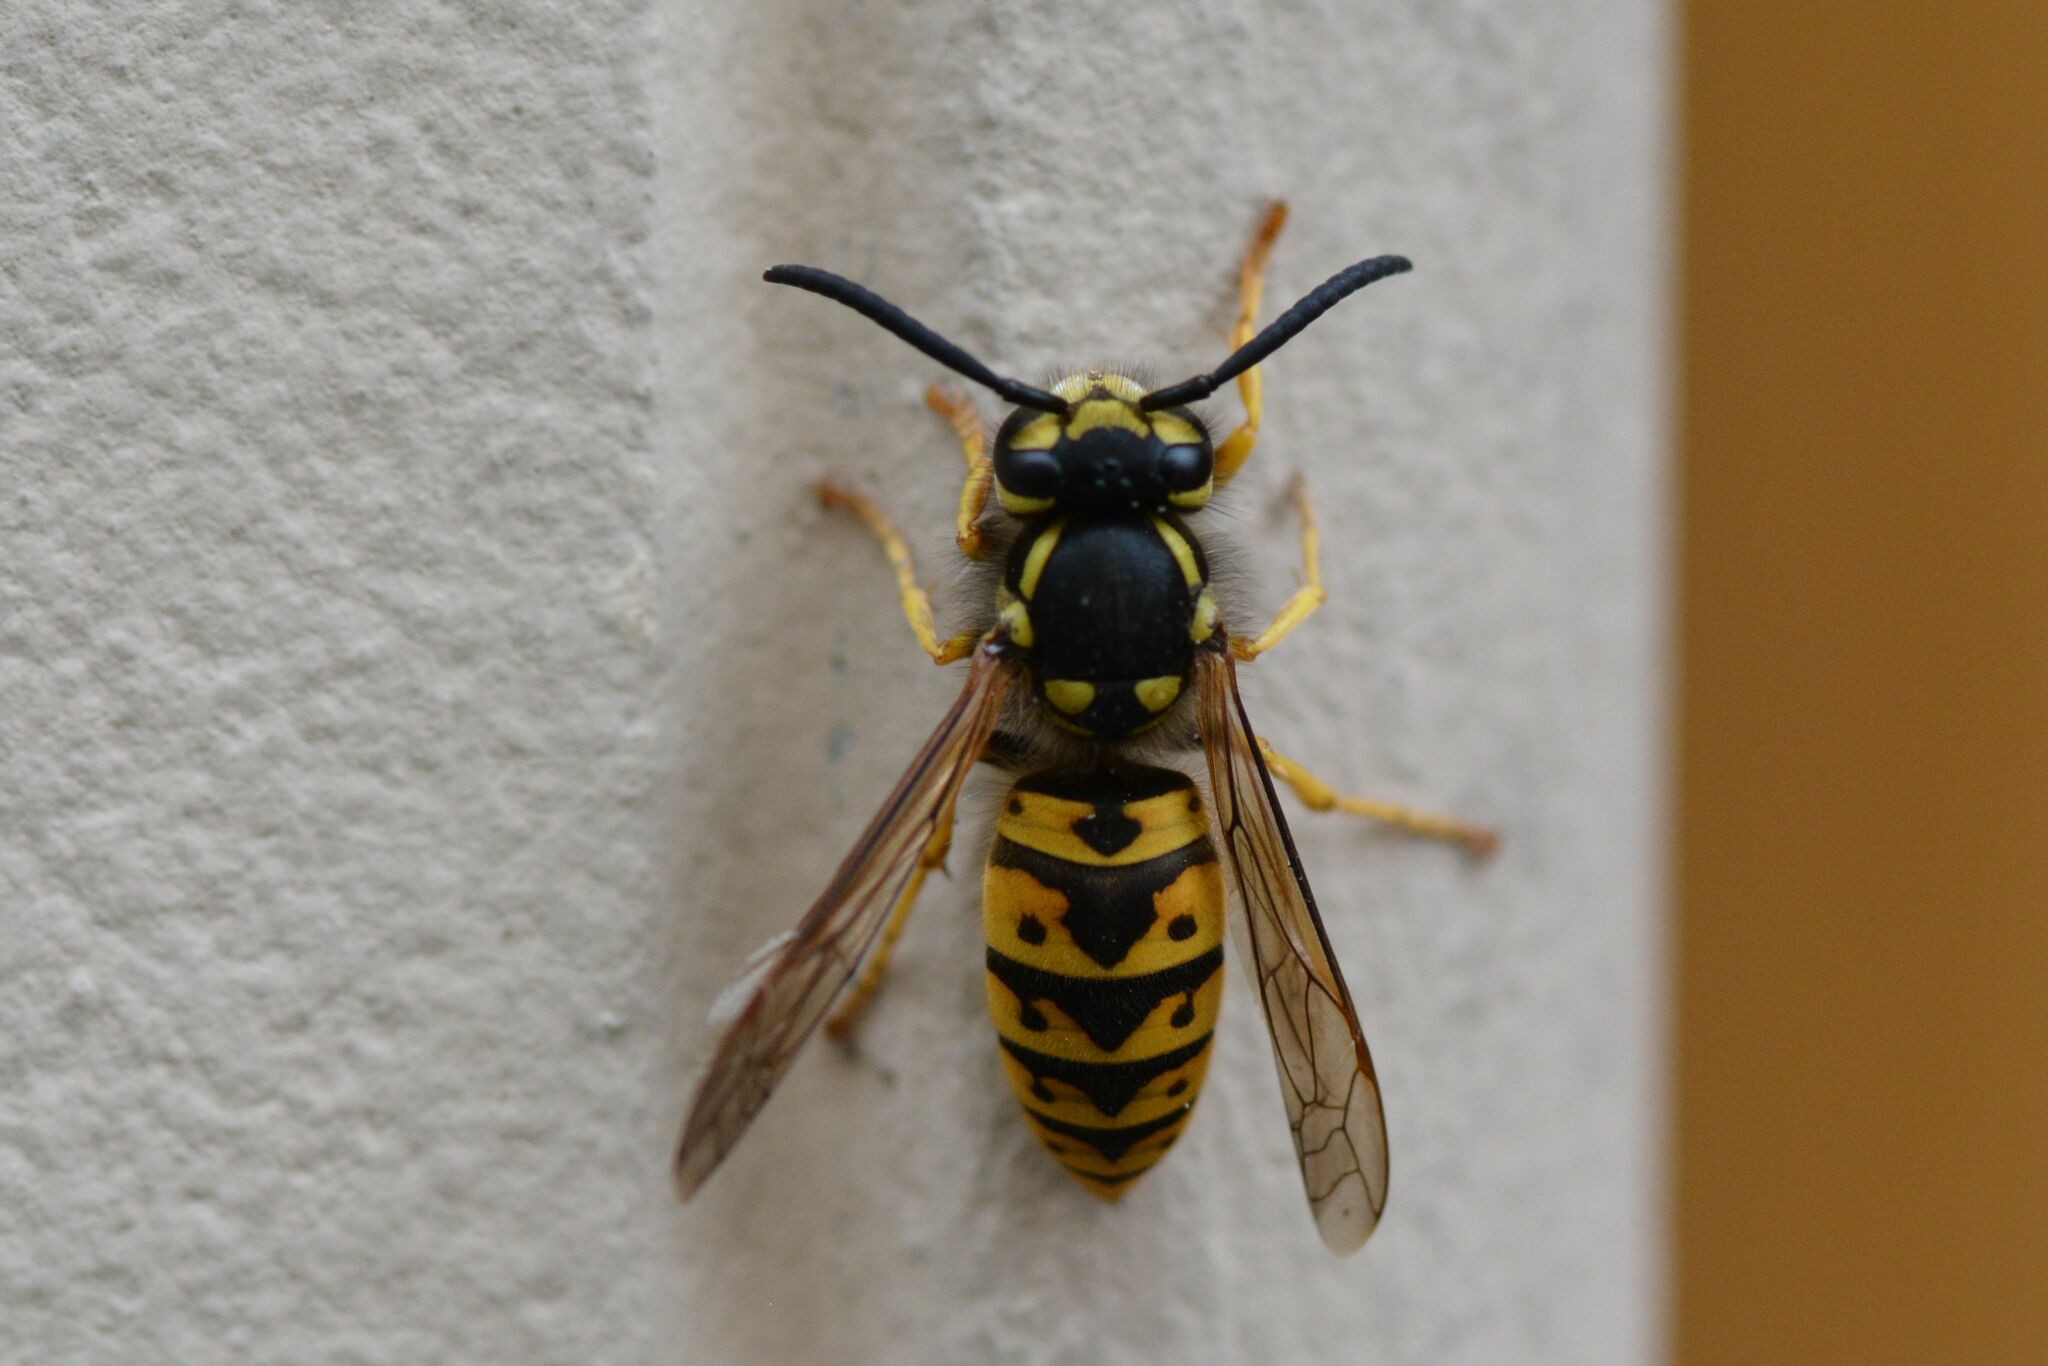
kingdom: Animalia
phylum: Arthropoda
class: Insecta
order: Hymenoptera
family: Vespidae
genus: Vespula
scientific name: Vespula germanica
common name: German wasp
